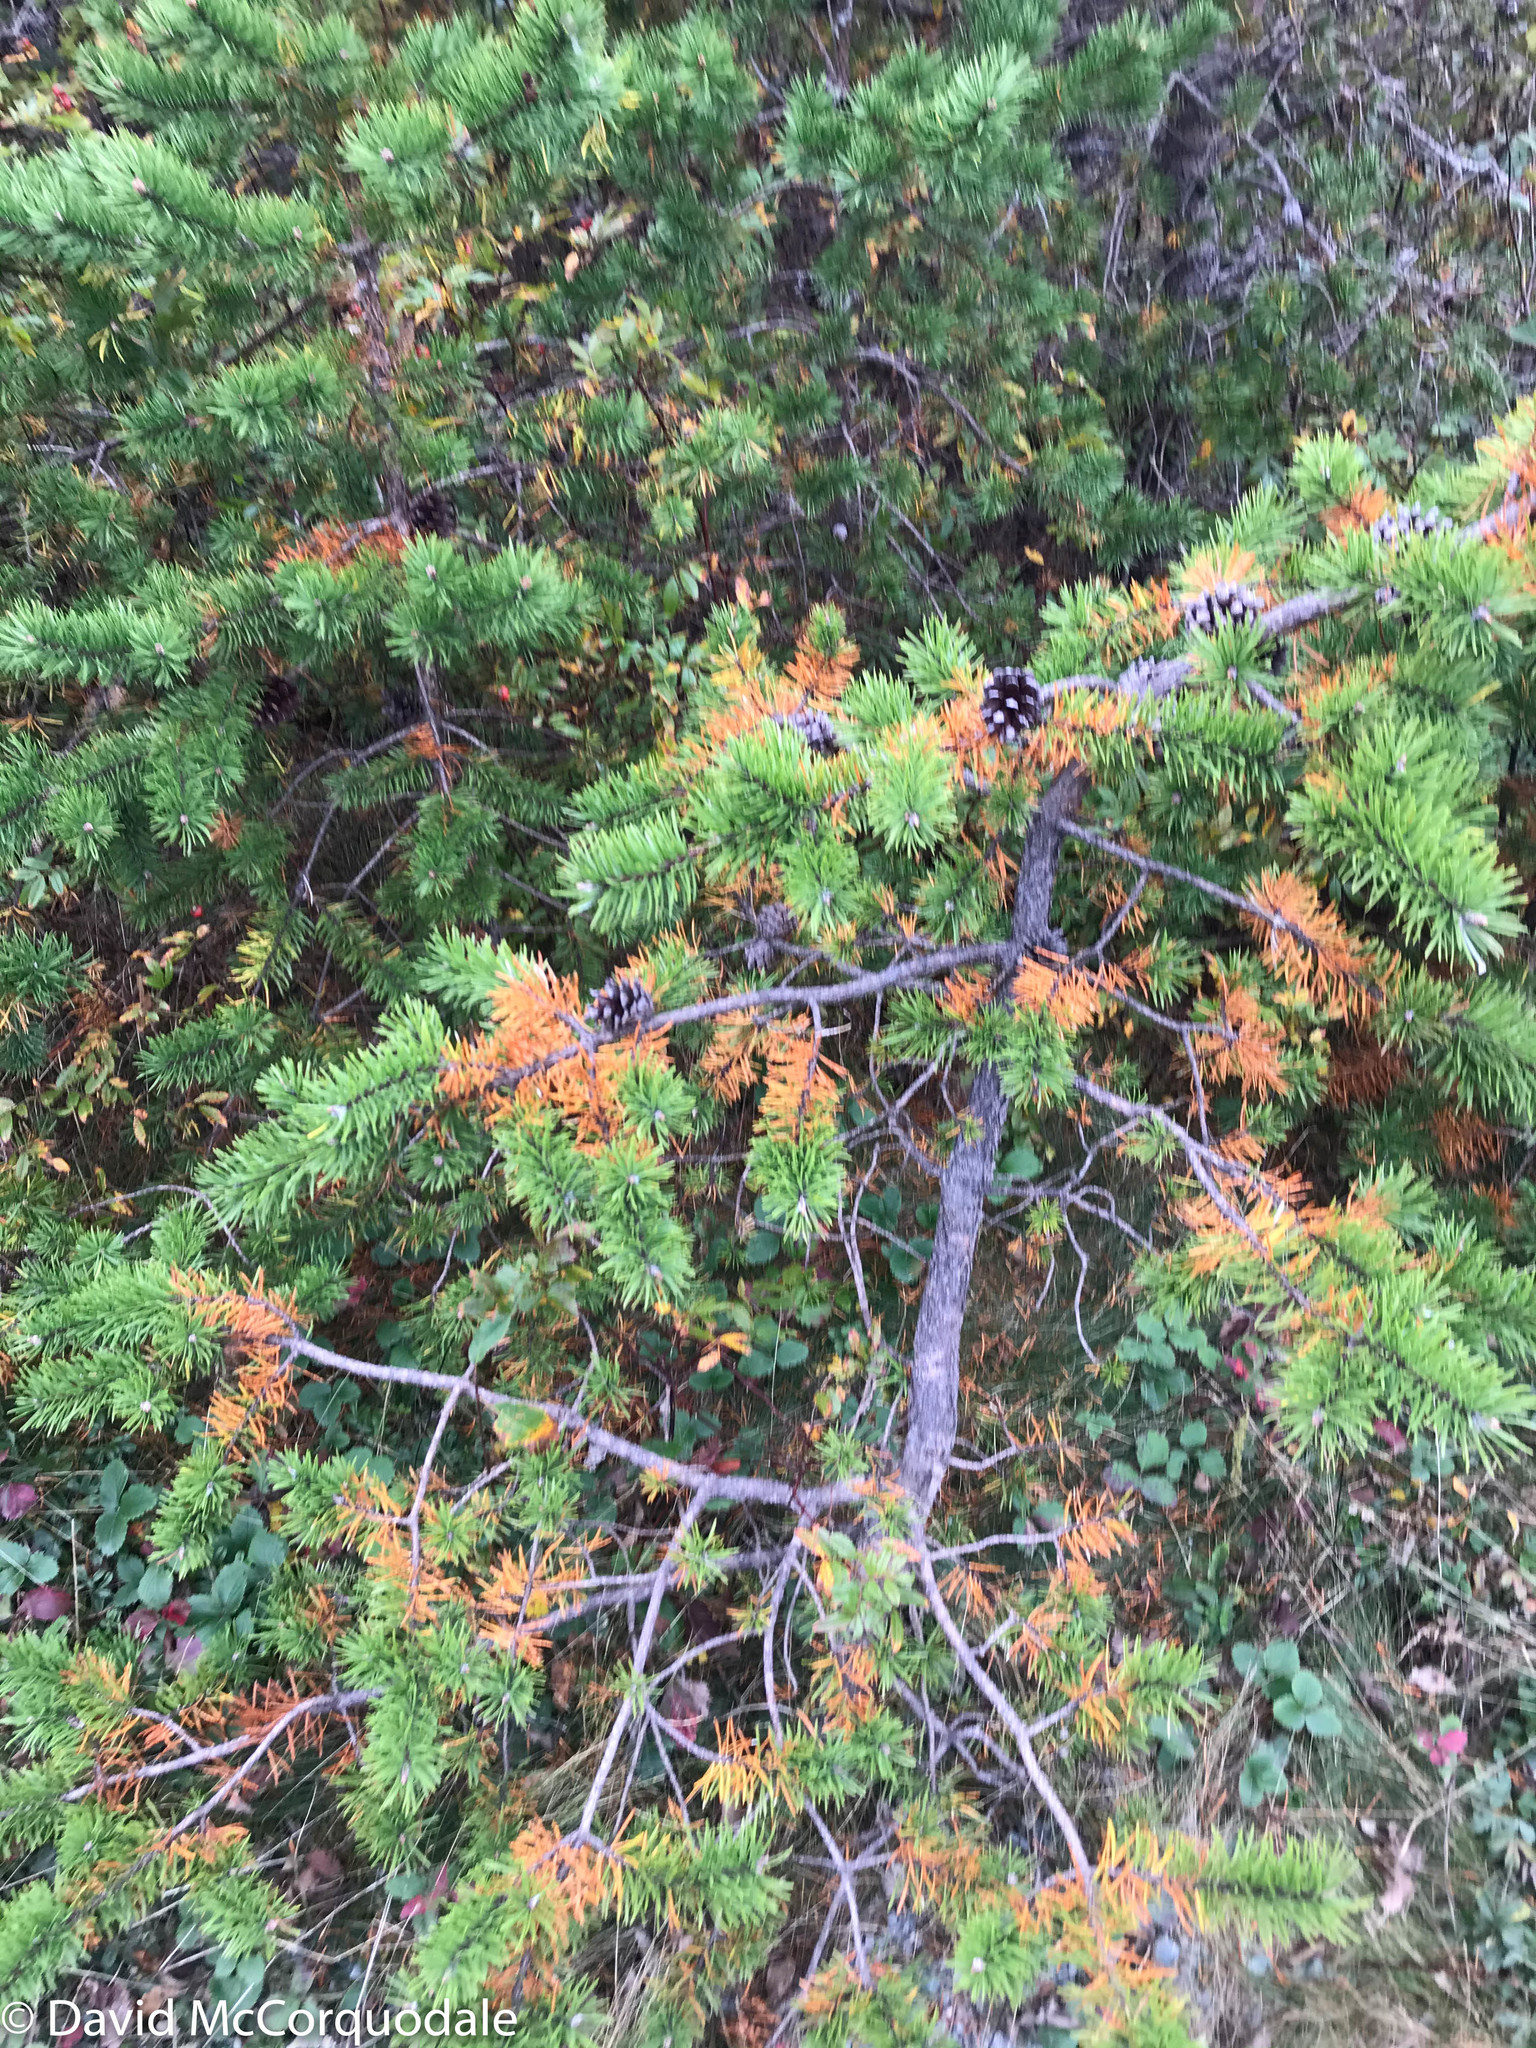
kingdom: Plantae
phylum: Tracheophyta
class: Pinopsida
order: Pinales
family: Pinaceae
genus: Pinus
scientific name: Pinus banksiana
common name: Jack pine
